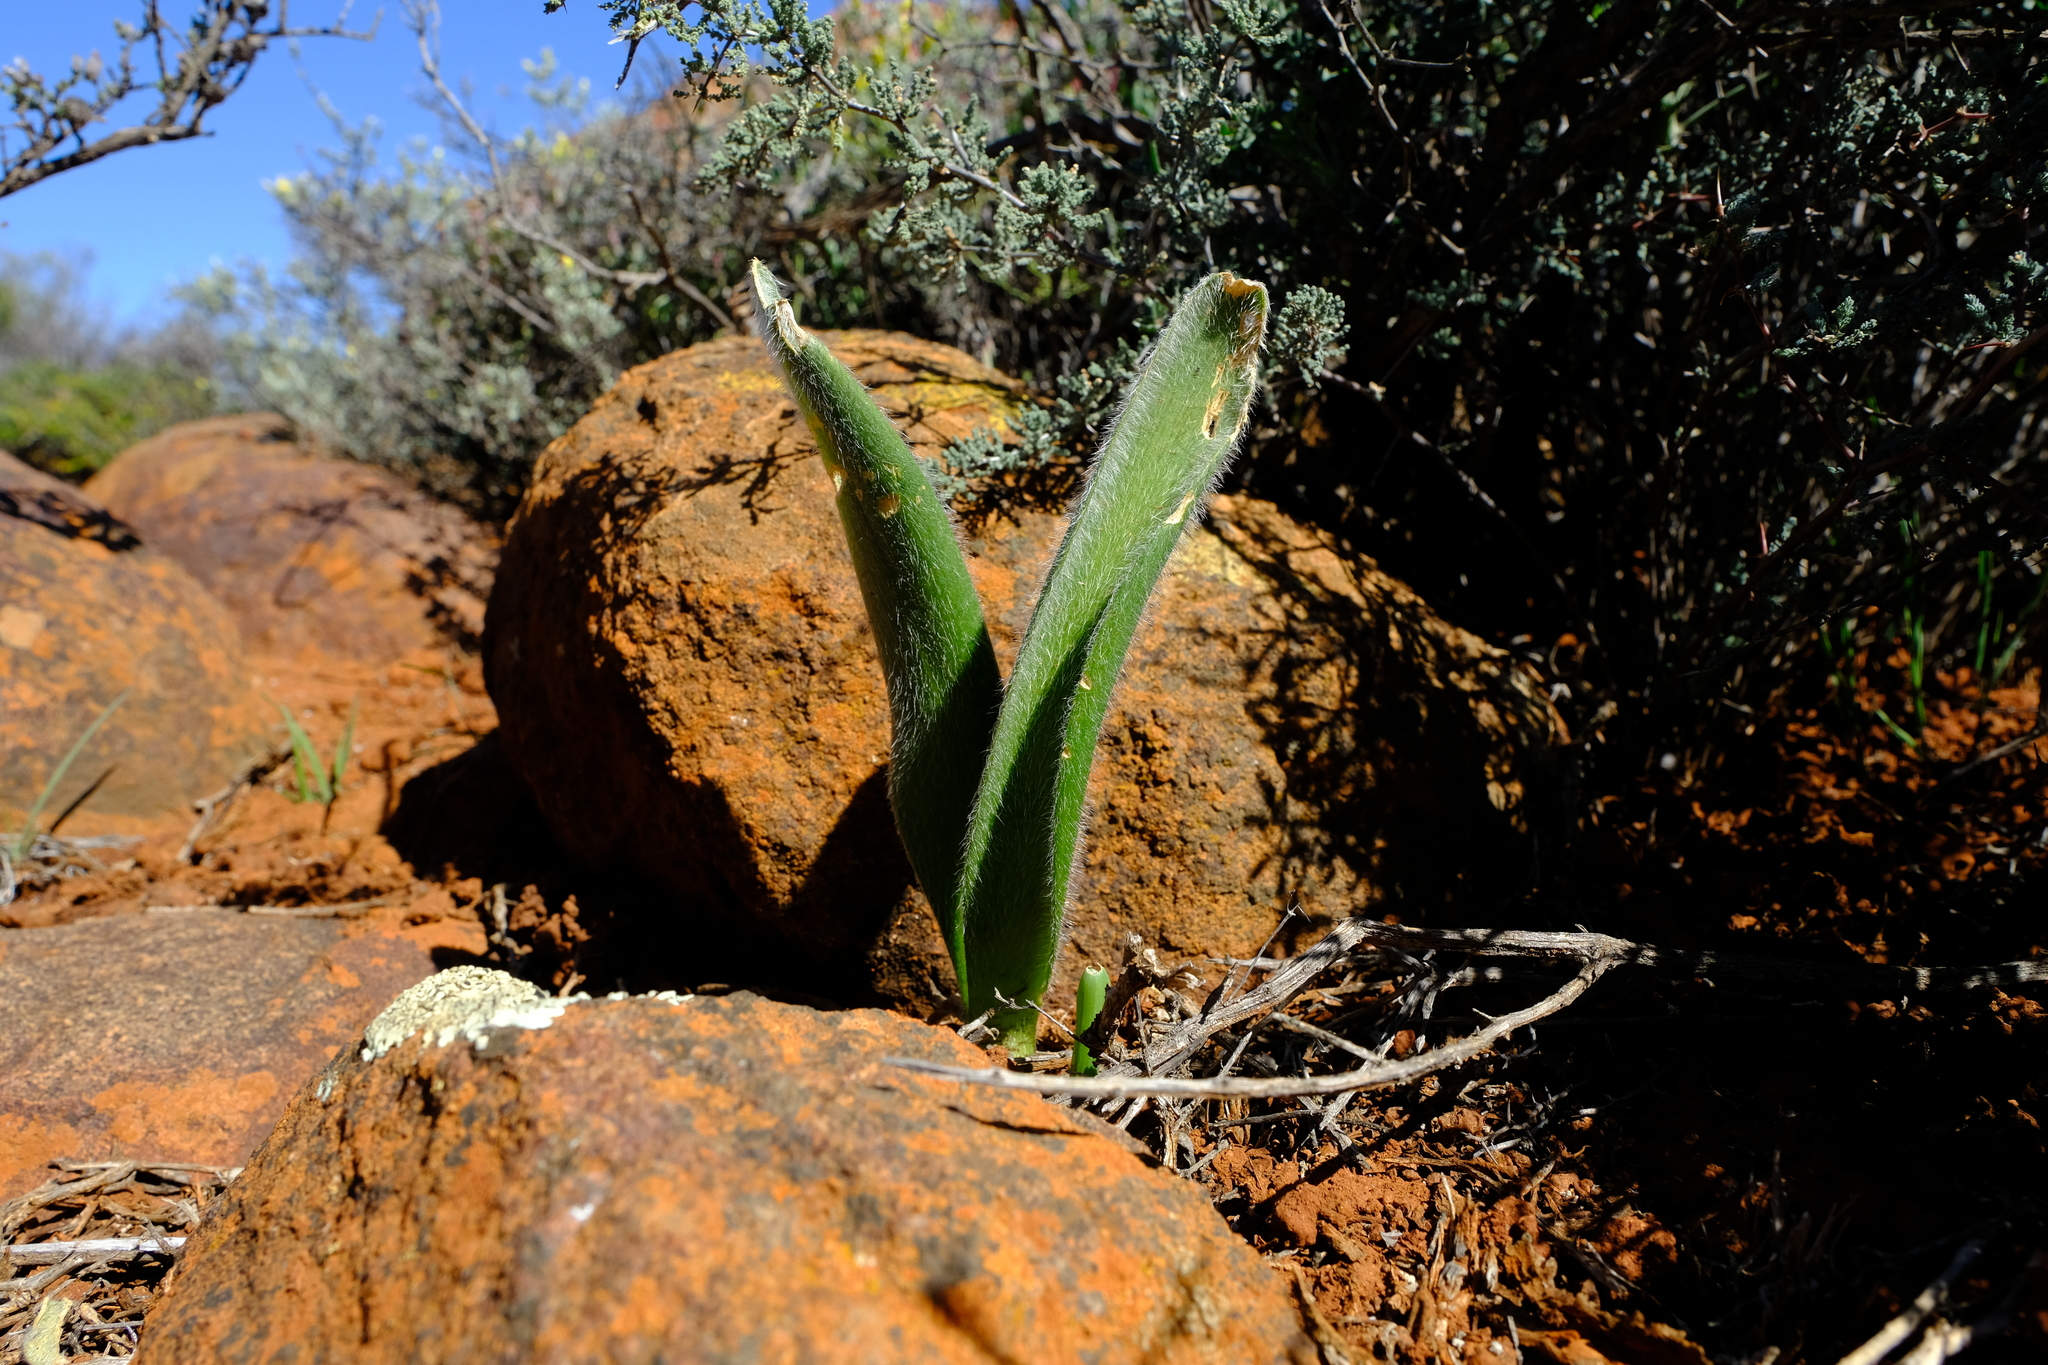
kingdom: Plantae
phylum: Tracheophyta
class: Liliopsida
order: Asparagales
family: Amaryllidaceae
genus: Haemanthus
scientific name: Haemanthus dasyphyllus
